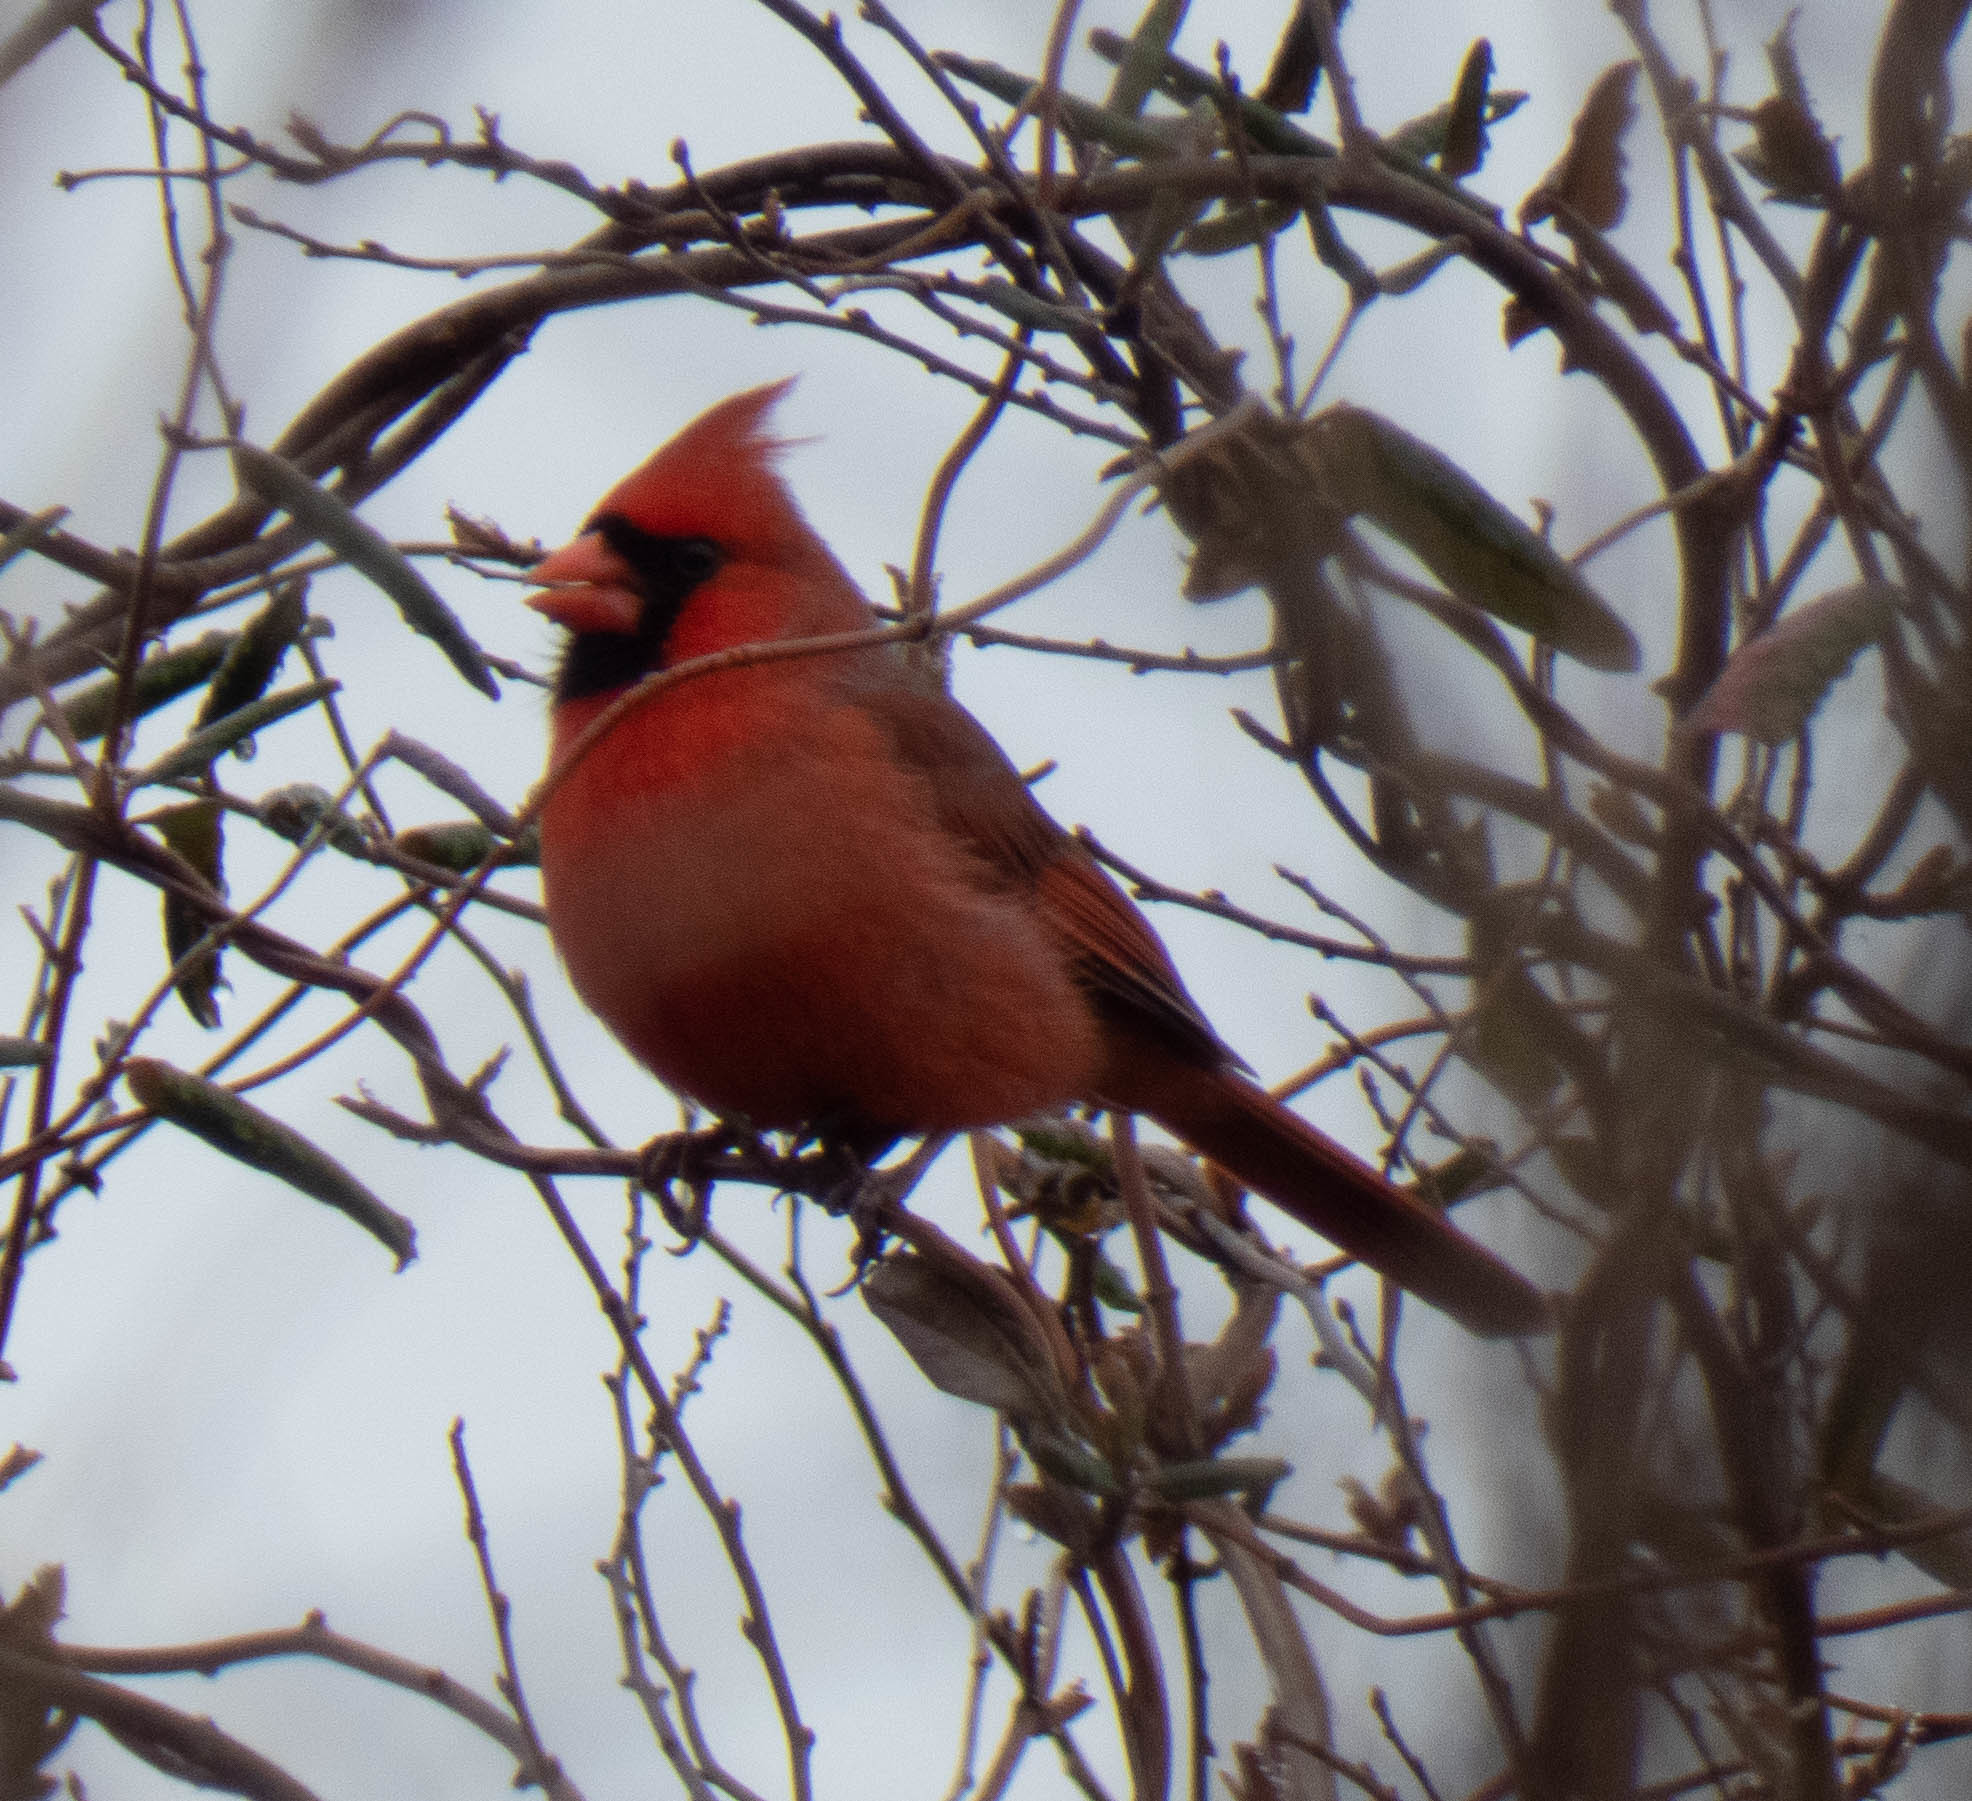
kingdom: Animalia
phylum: Chordata
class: Aves
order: Passeriformes
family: Cardinalidae
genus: Cardinalis
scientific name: Cardinalis cardinalis
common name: Northern cardinal
